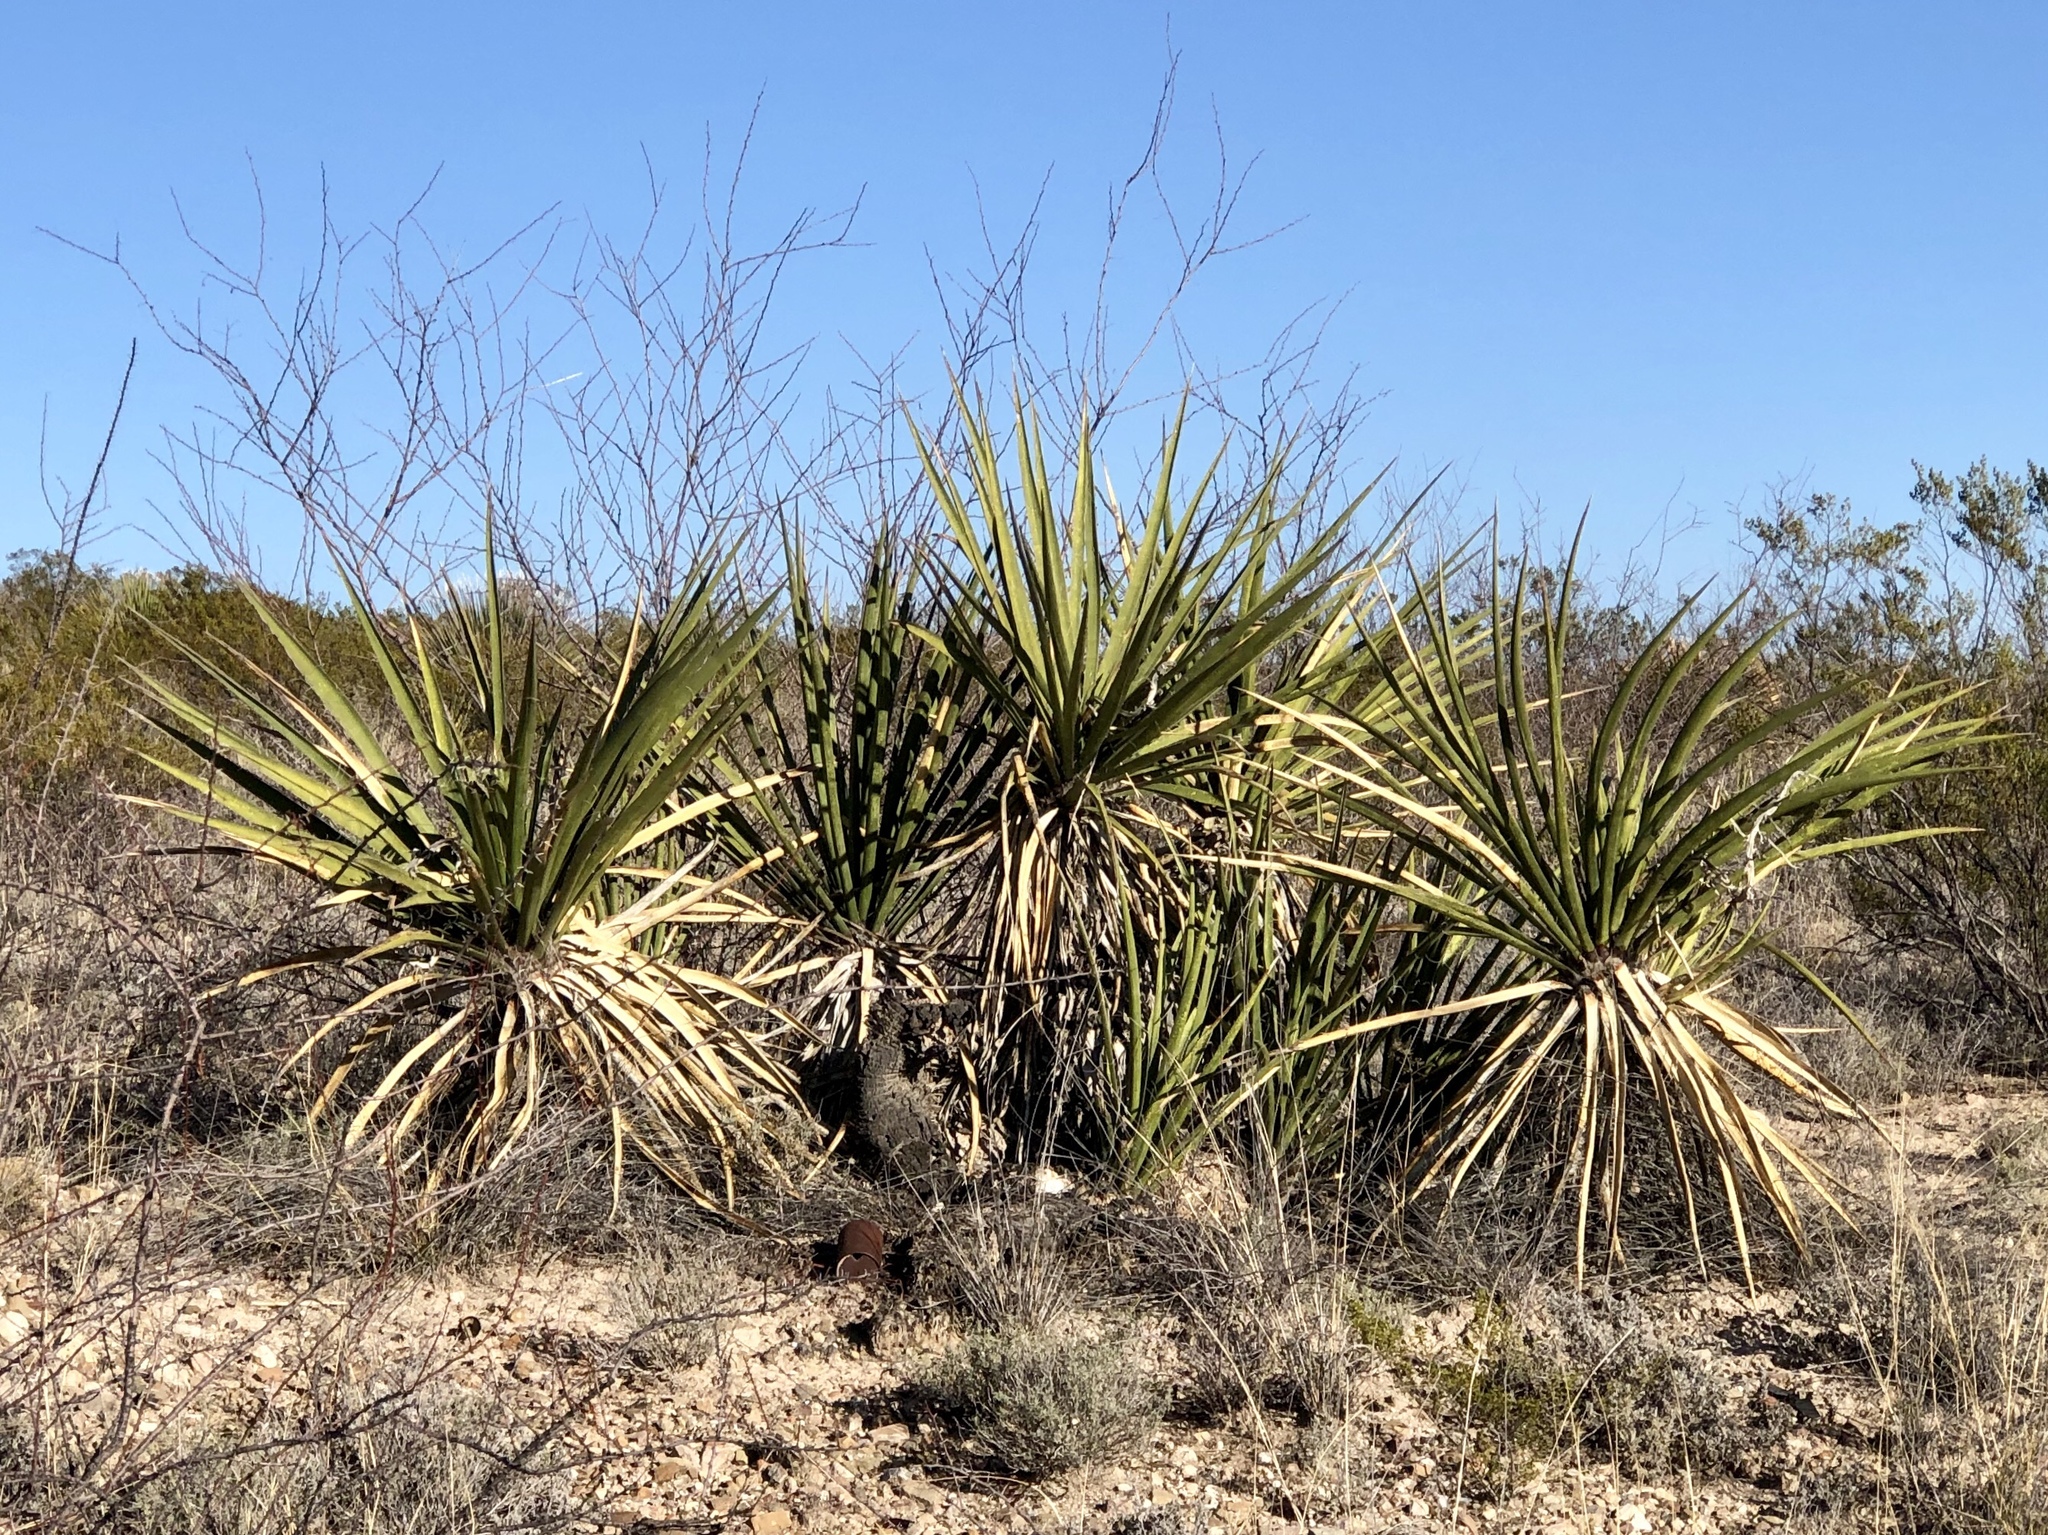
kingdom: Plantae
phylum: Tracheophyta
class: Liliopsida
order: Asparagales
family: Asparagaceae
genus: Yucca
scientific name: Yucca baccata
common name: Banana yucca
